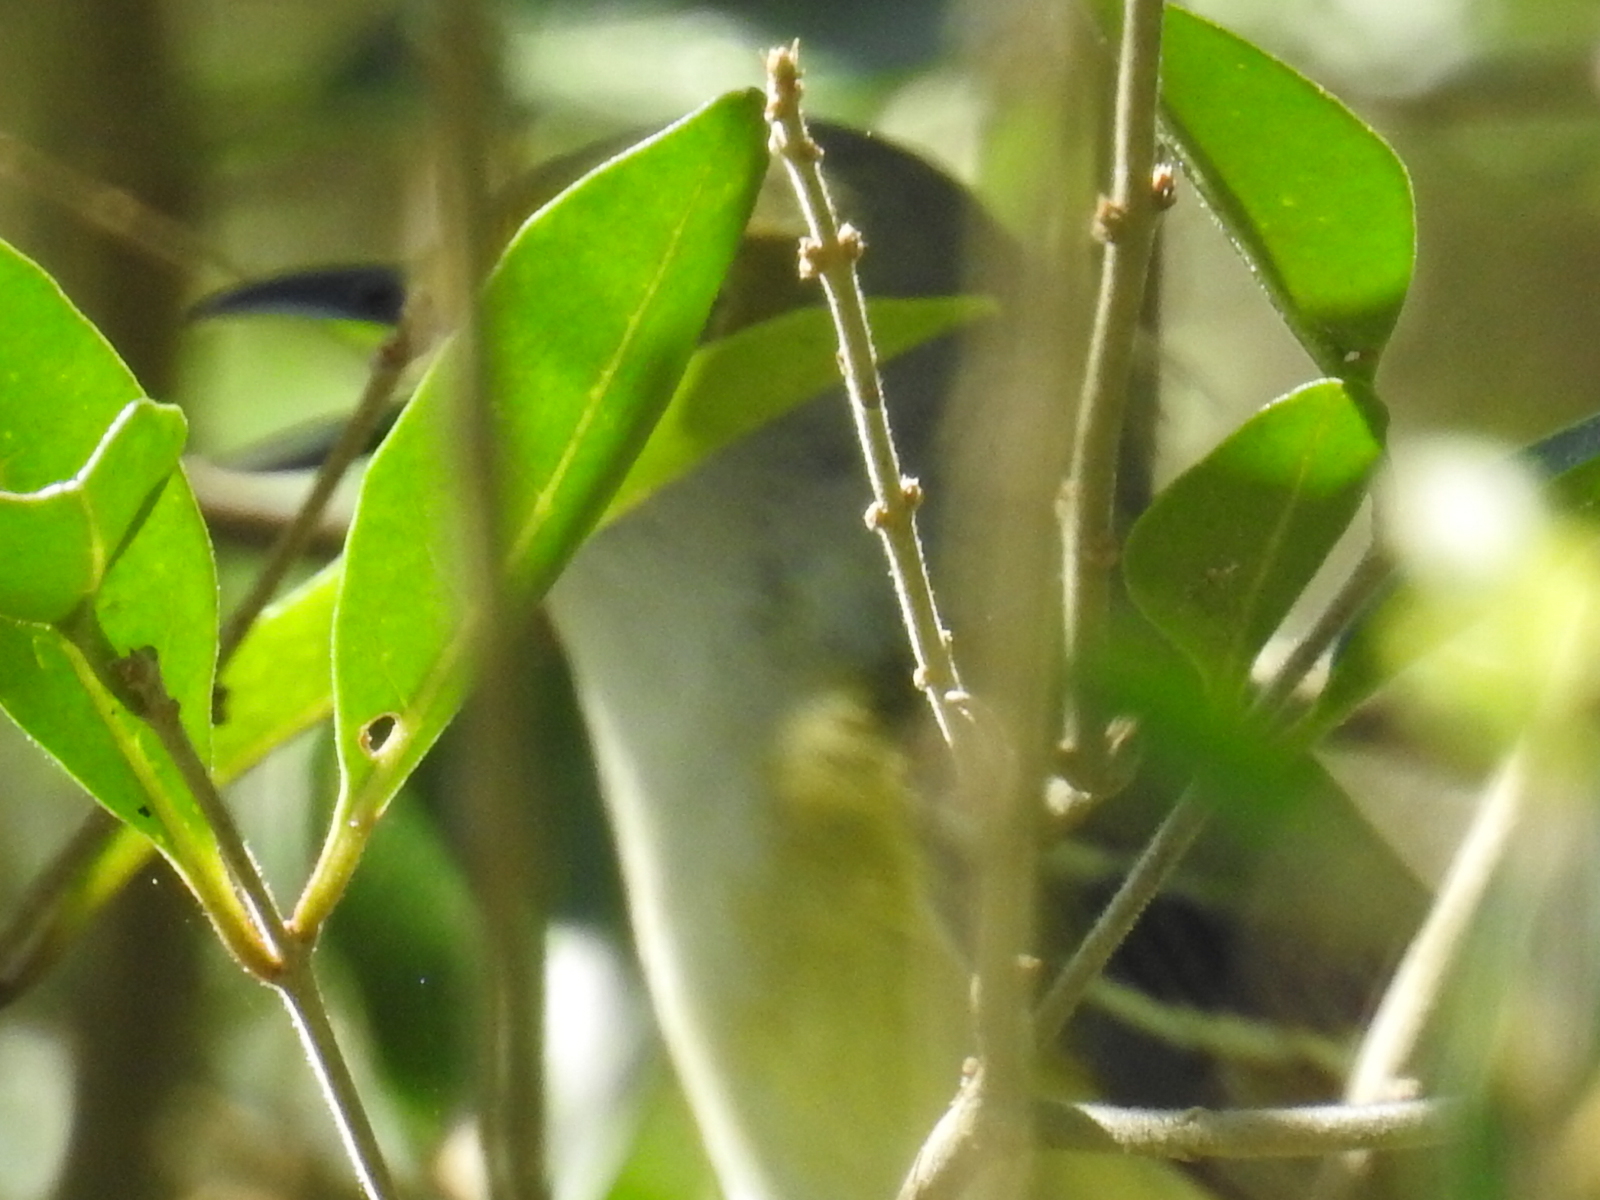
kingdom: Animalia
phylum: Chordata
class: Aves
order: Passeriformes
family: Vireonidae
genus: Vireo
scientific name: Vireo griseus
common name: White-eyed vireo
